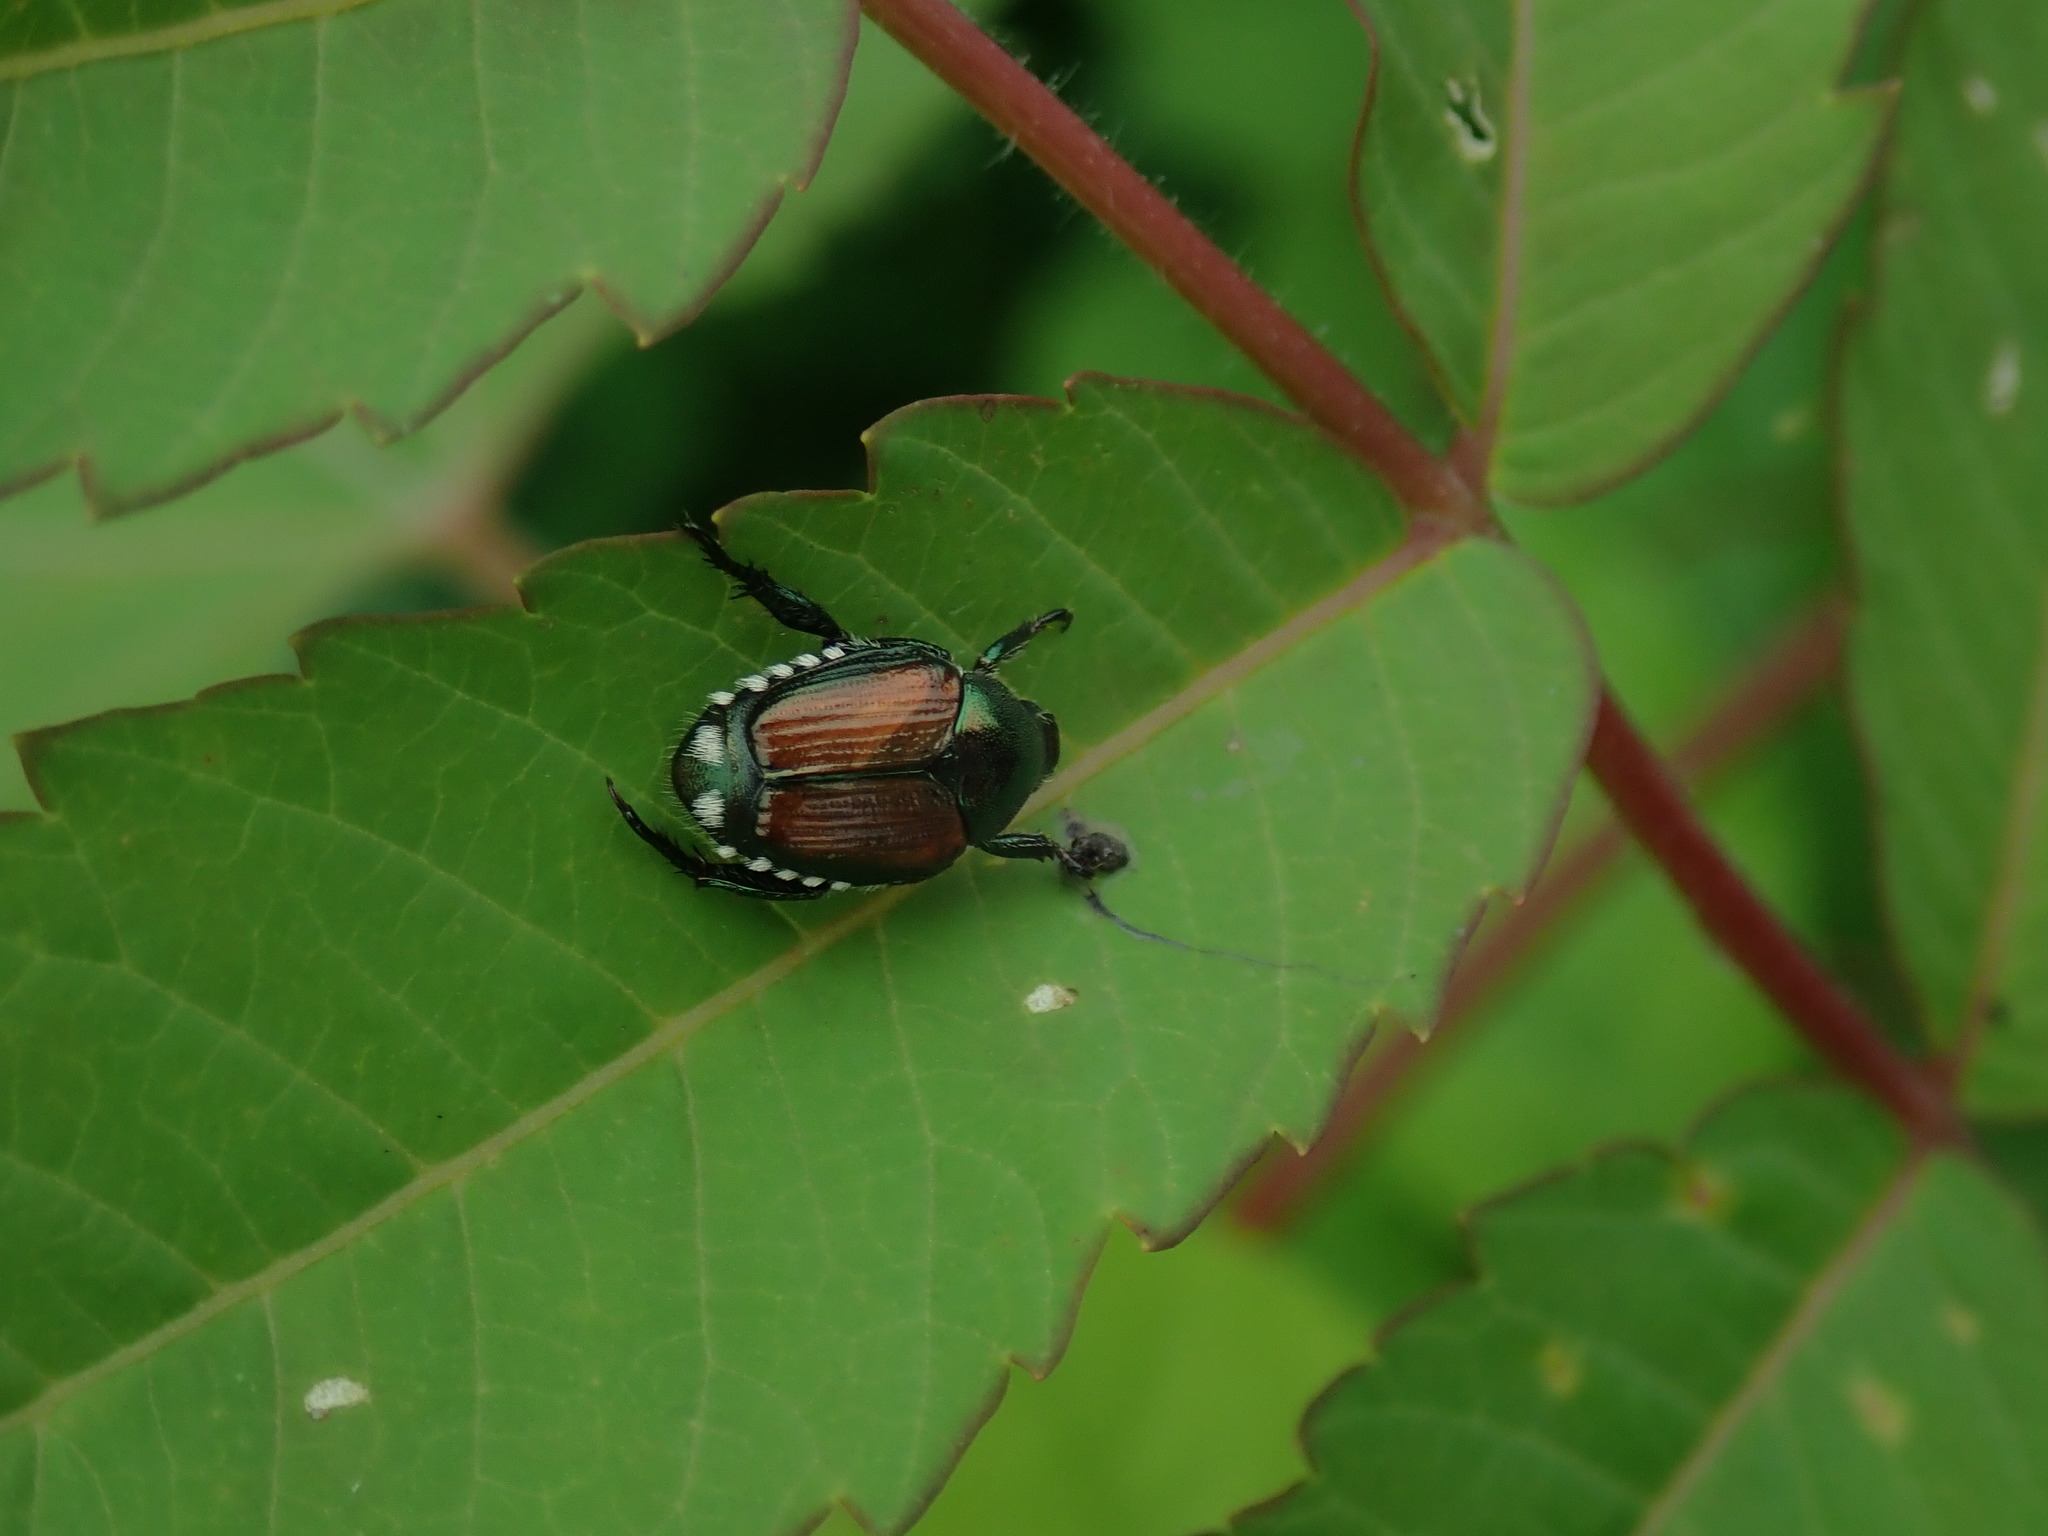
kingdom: Animalia
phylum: Arthropoda
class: Insecta
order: Coleoptera
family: Scarabaeidae
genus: Popillia
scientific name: Popillia japonica
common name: Japanese beetle
